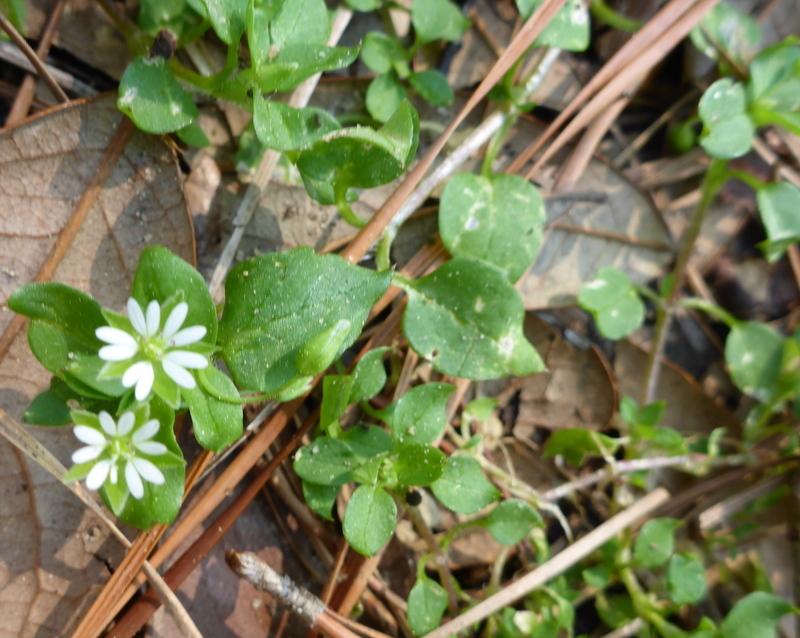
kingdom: Plantae
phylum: Tracheophyta
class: Magnoliopsida
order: Caryophyllales
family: Caryophyllaceae
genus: Stellaria
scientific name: Stellaria media
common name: Common chickweed
